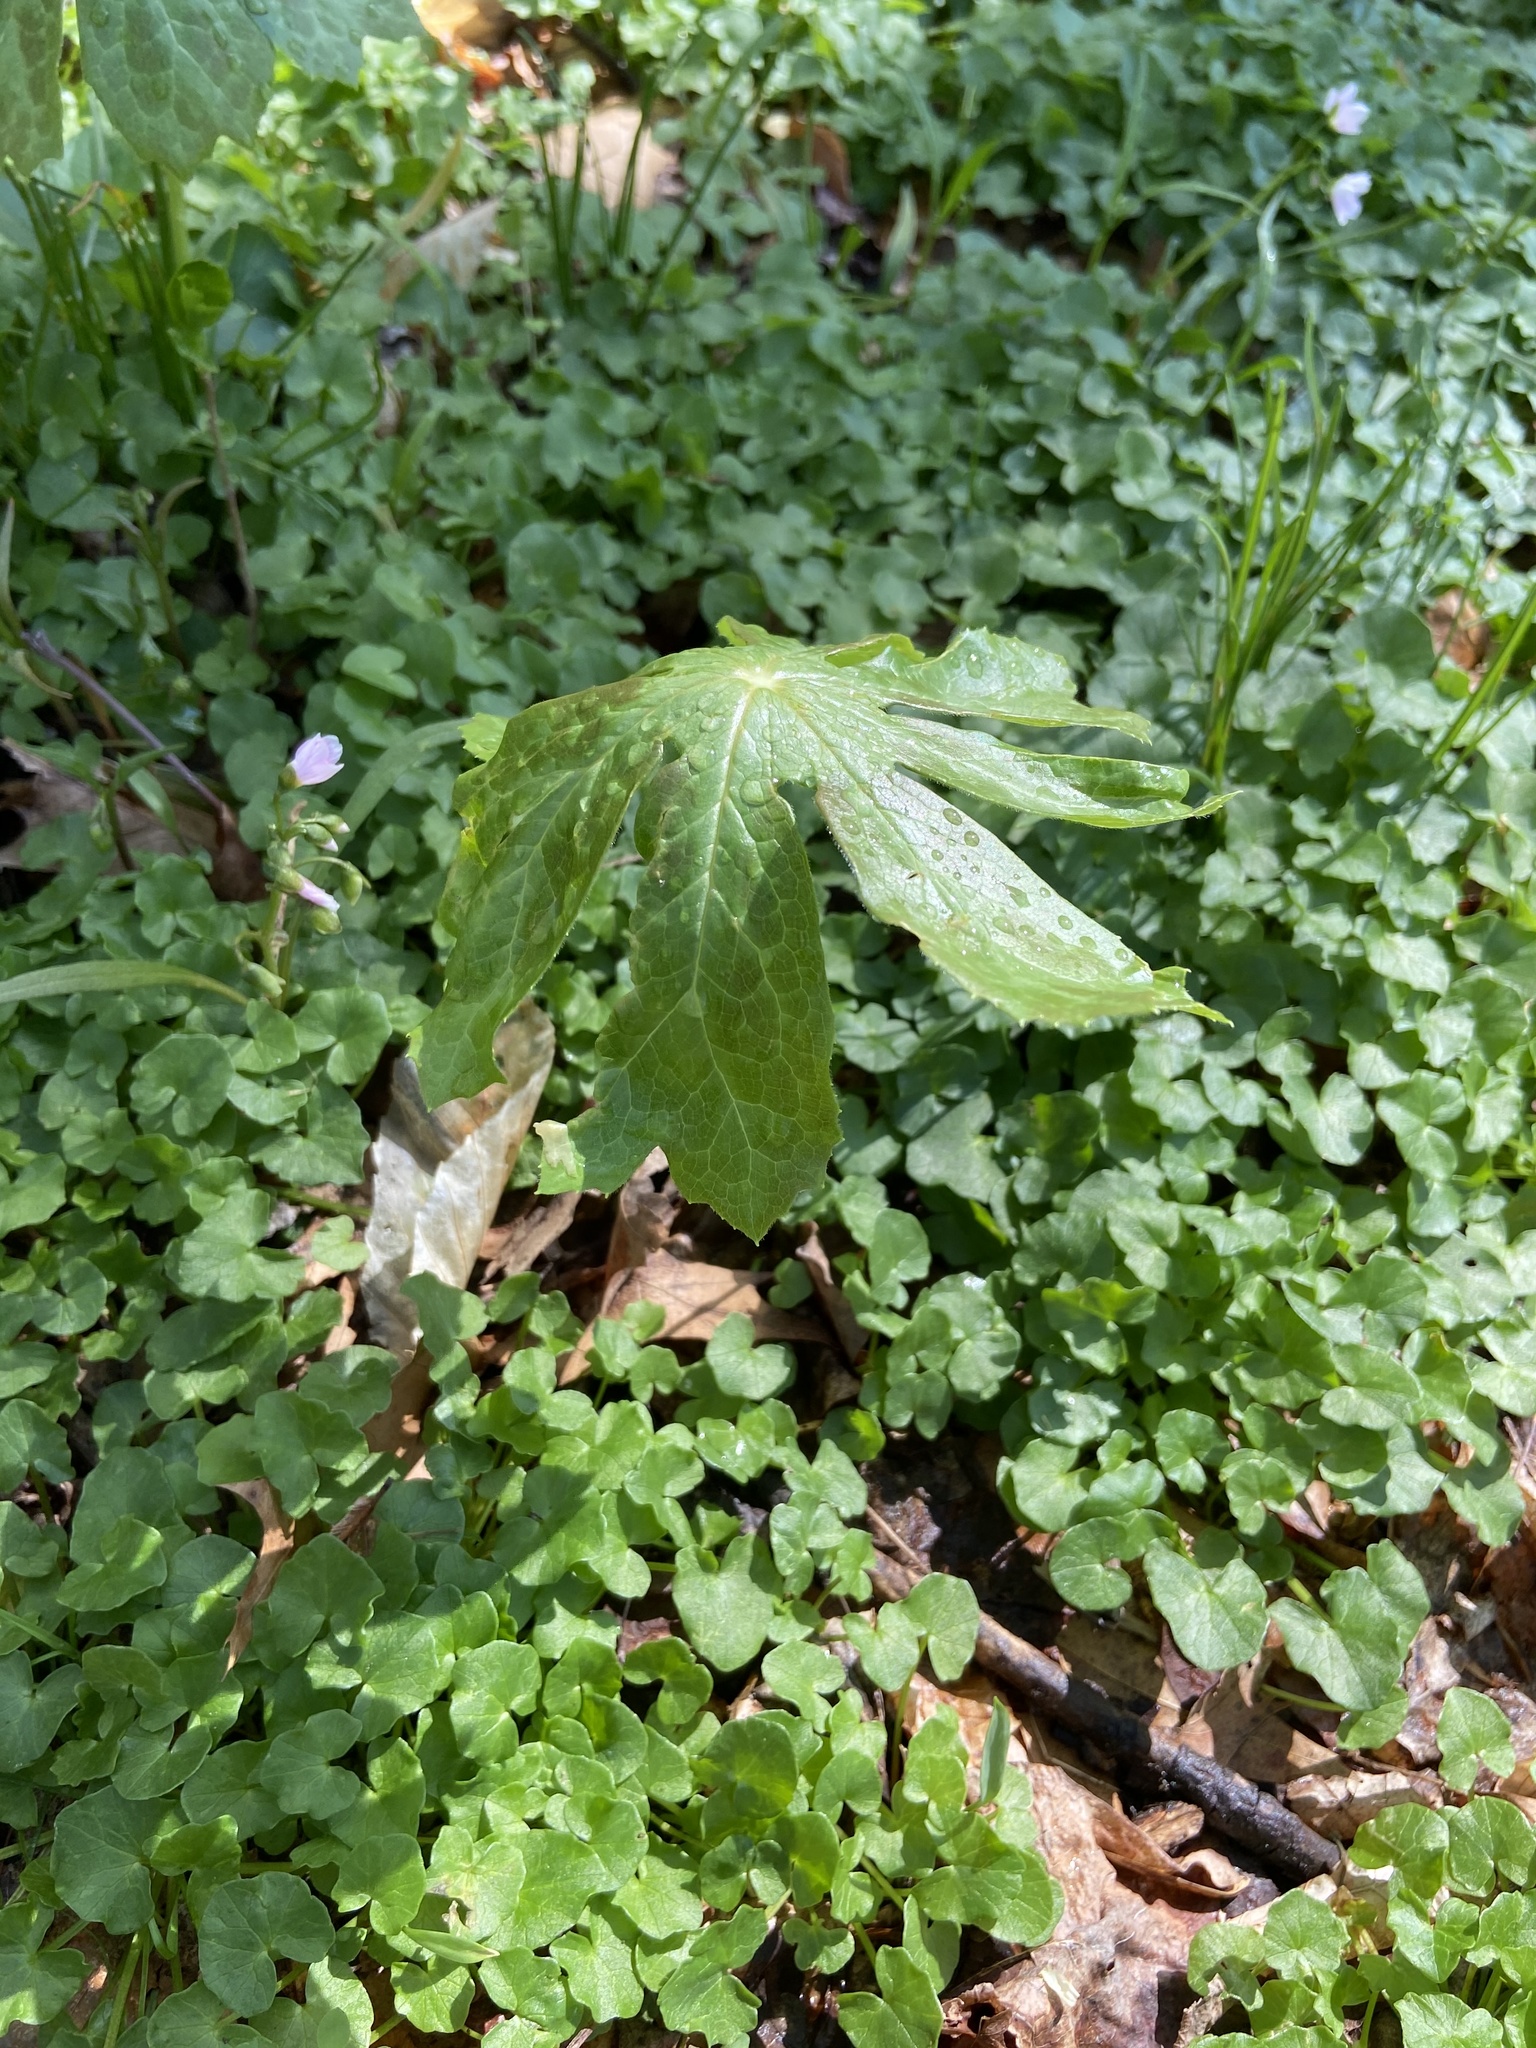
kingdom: Plantae
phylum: Tracheophyta
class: Magnoliopsida
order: Ranunculales
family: Berberidaceae
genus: Podophyllum
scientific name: Podophyllum peltatum
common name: Wild mandrake
